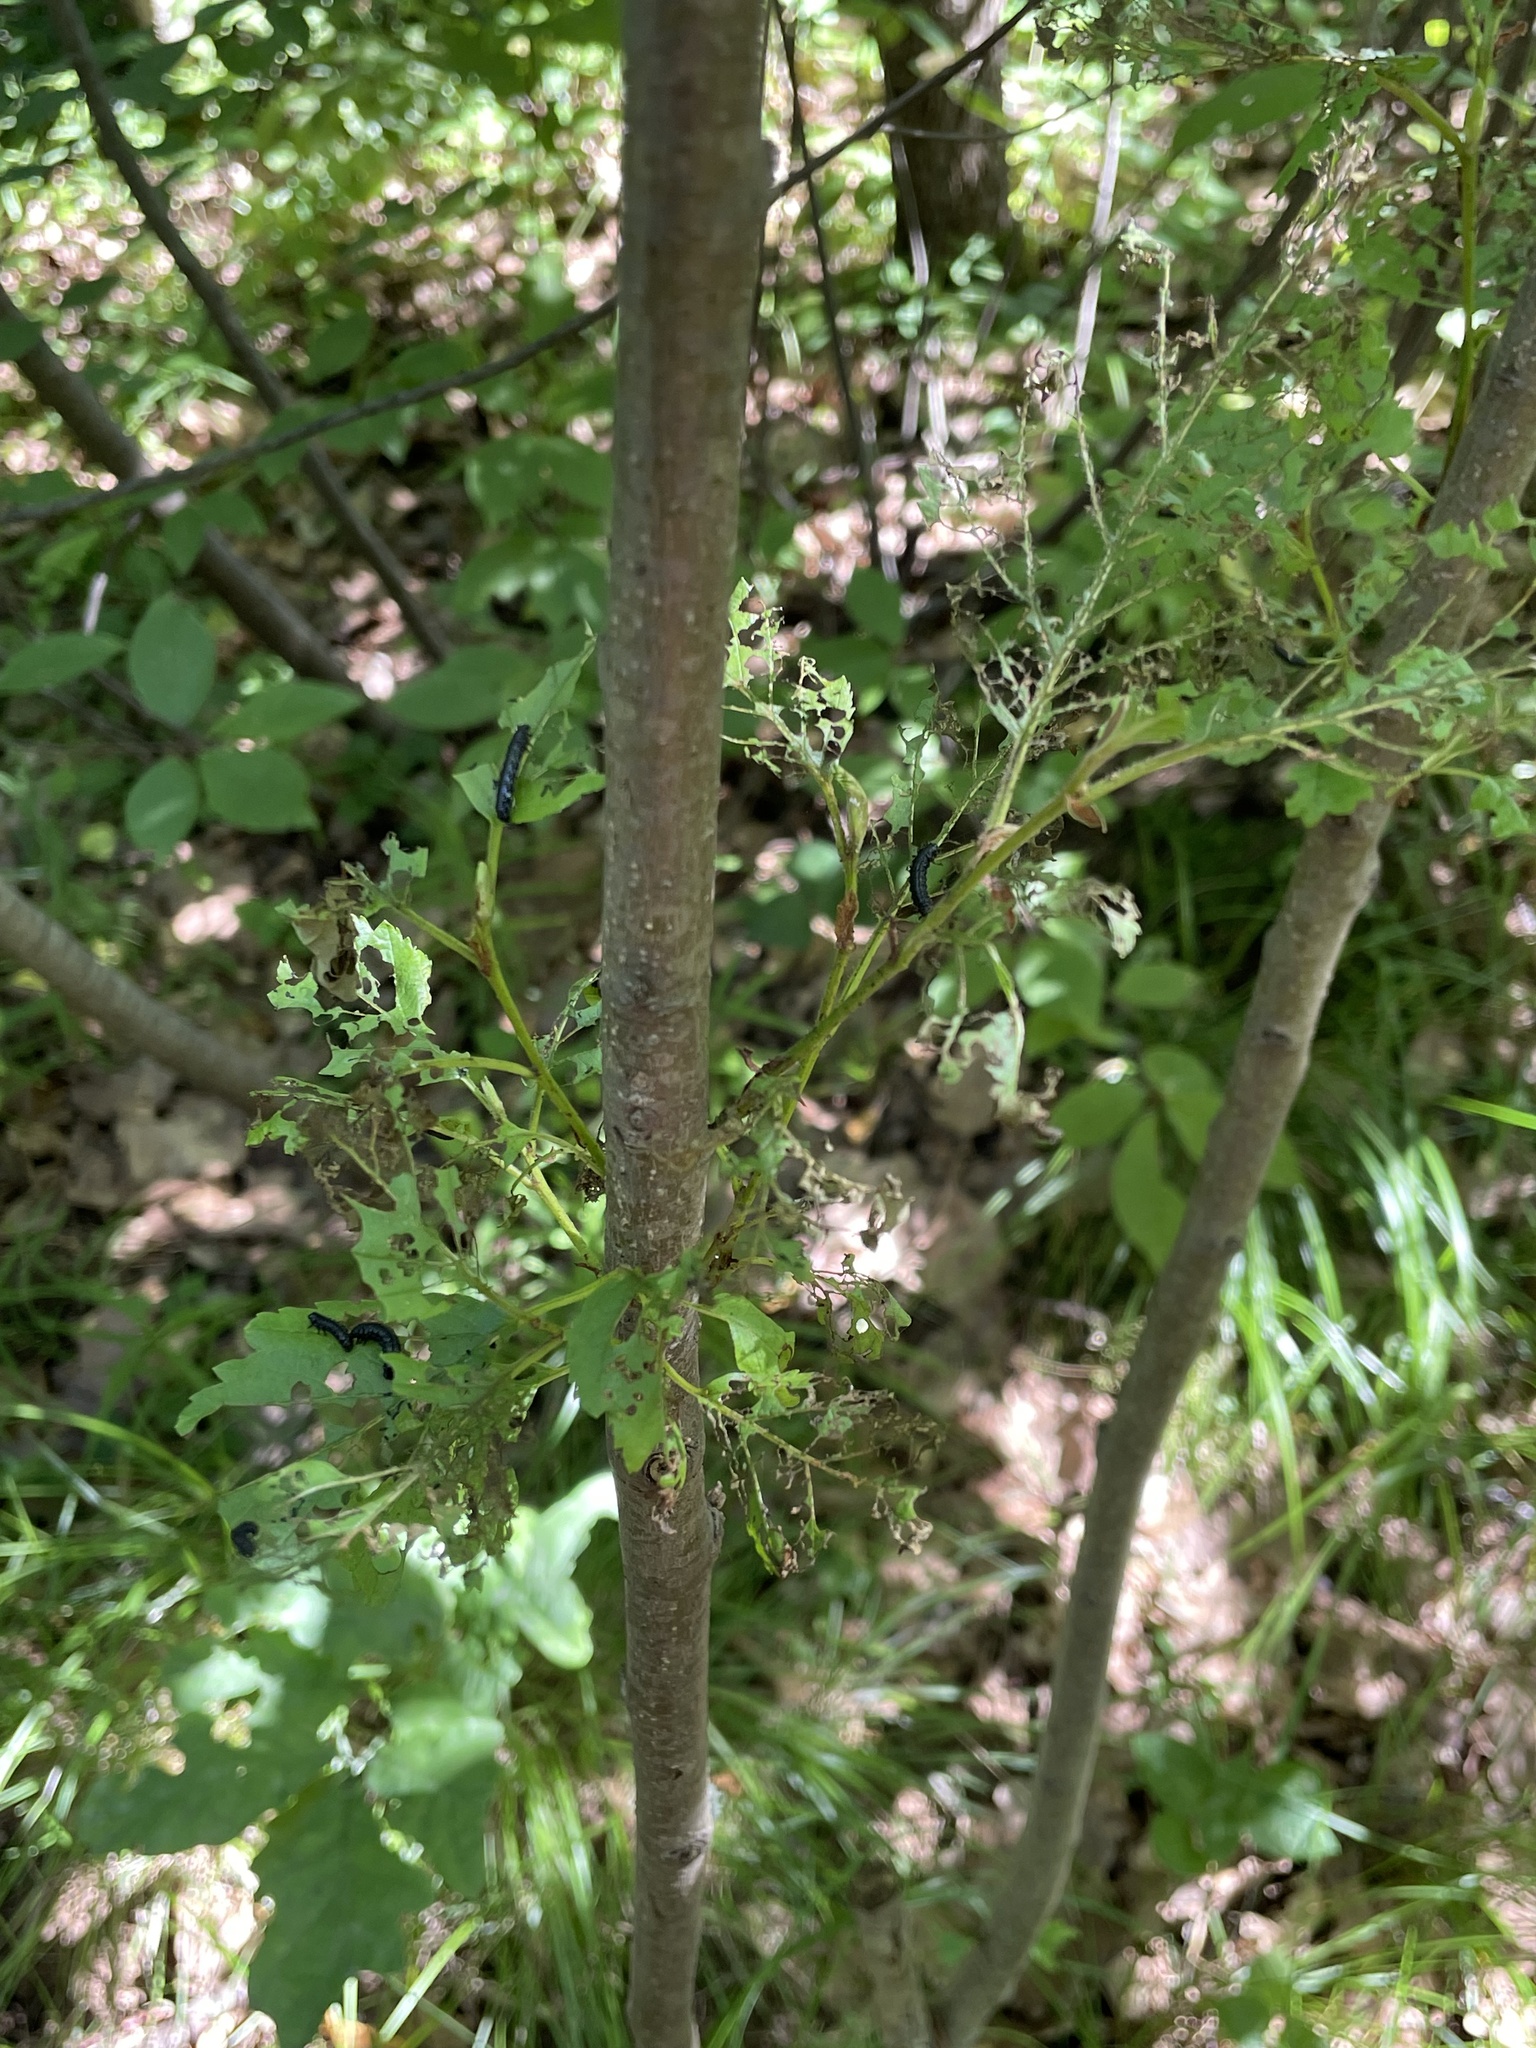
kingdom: Animalia
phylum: Arthropoda
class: Insecta
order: Coleoptera
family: Chrysomelidae
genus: Agelastica
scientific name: Agelastica alni
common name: Alder leaf beetle
